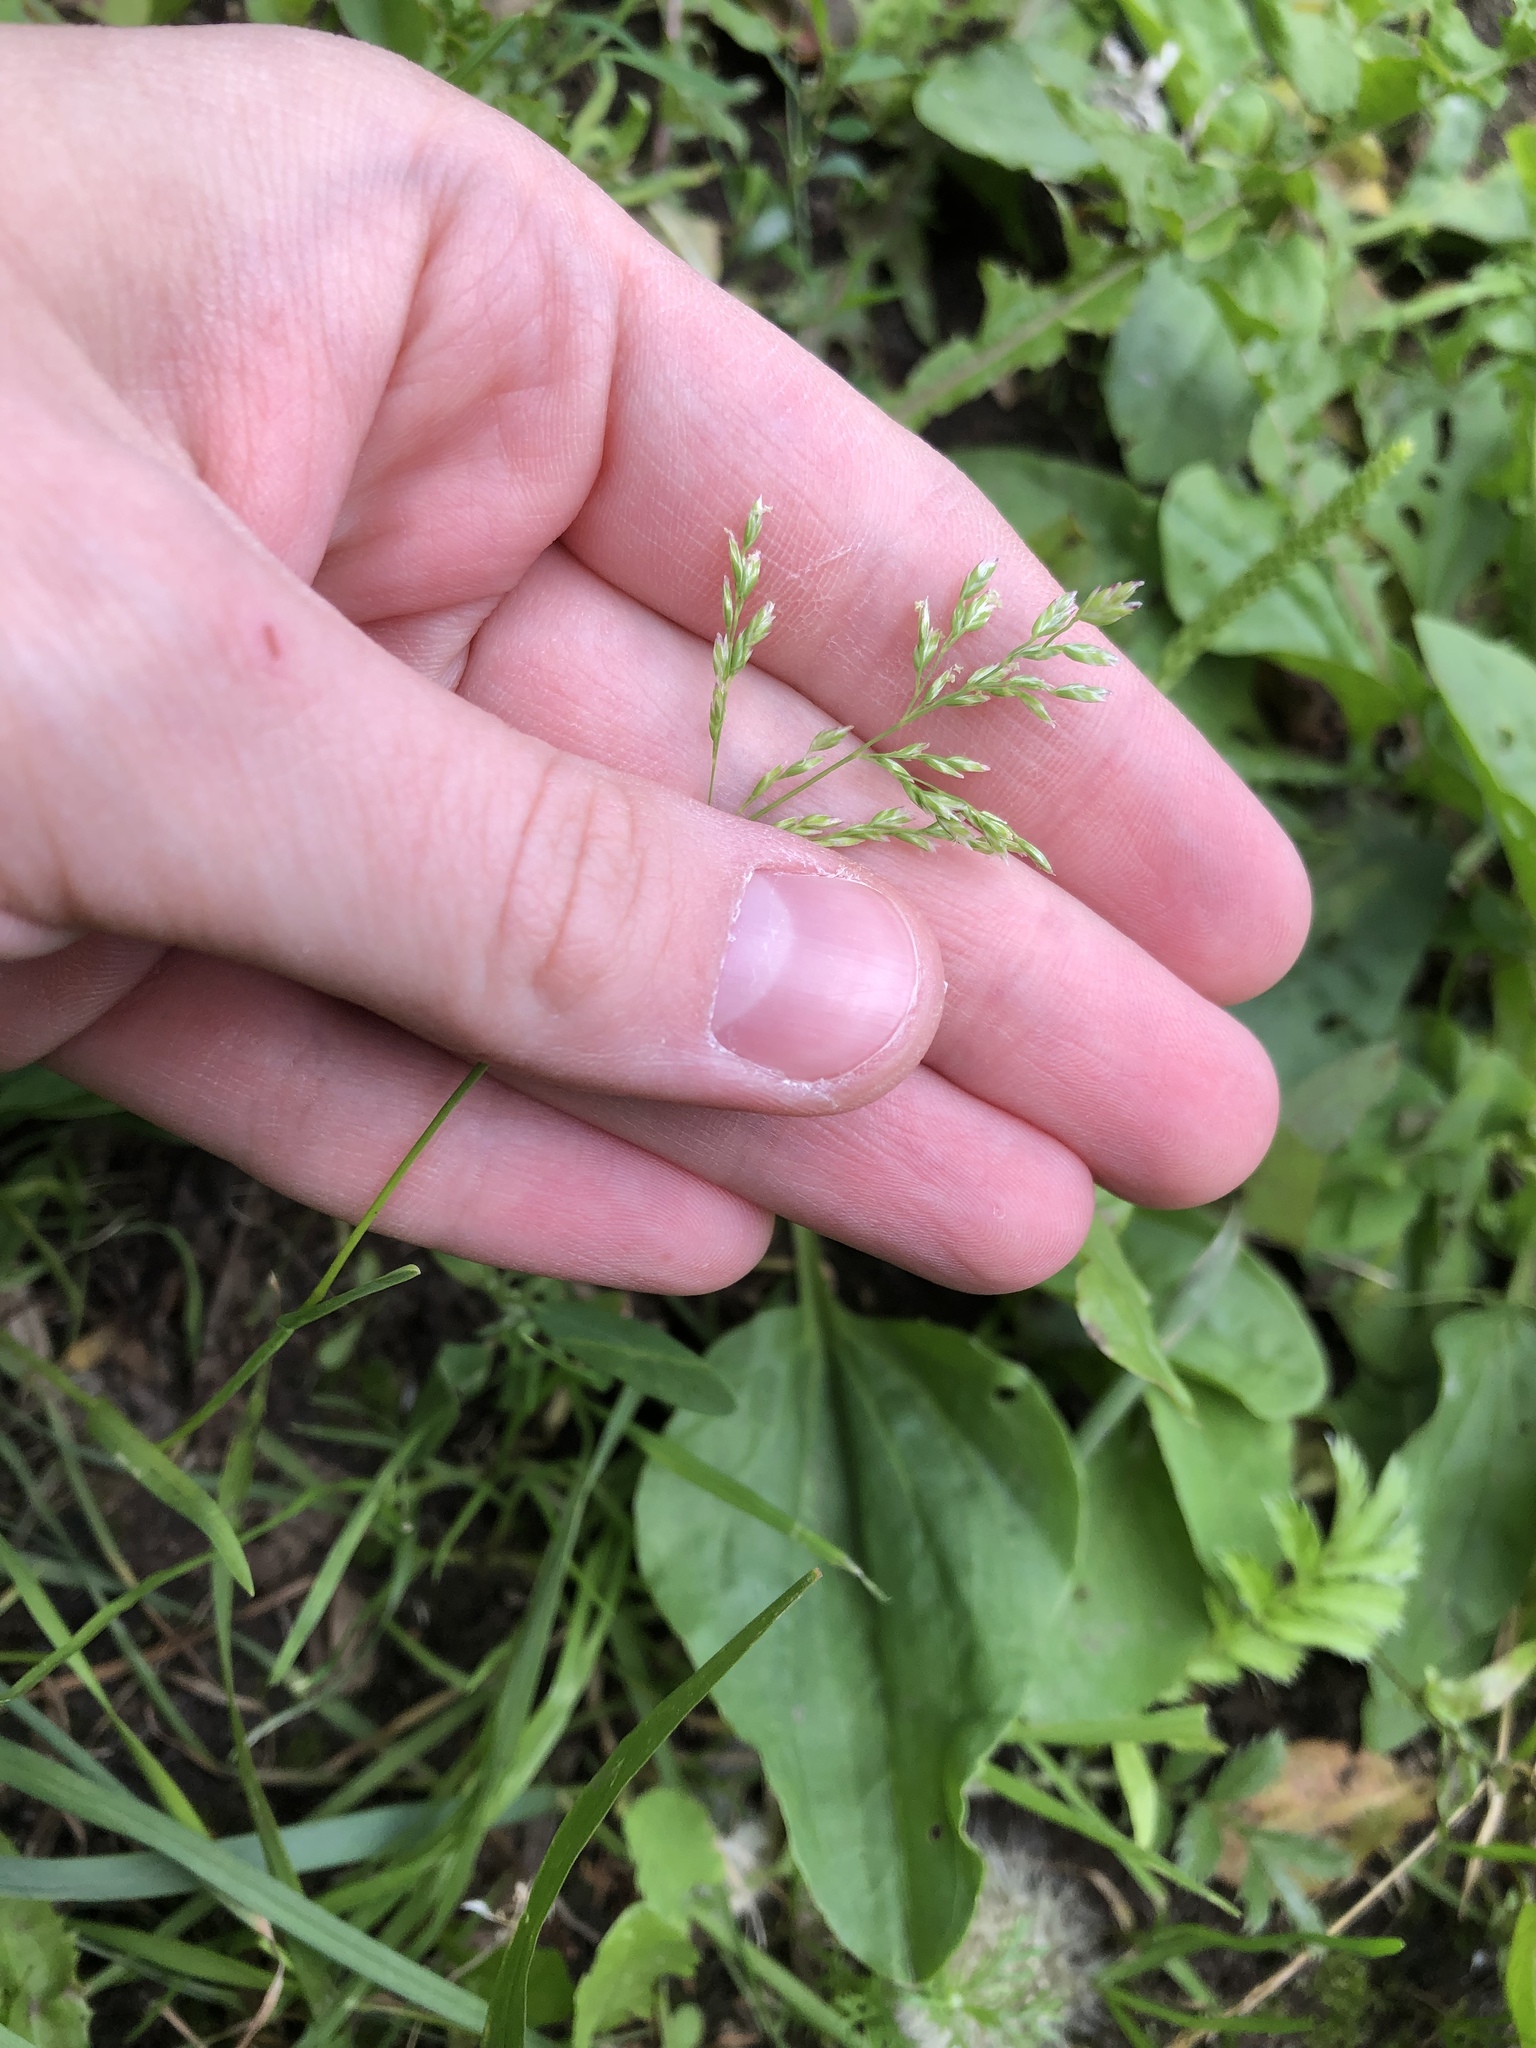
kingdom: Plantae
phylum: Tracheophyta
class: Liliopsida
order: Poales
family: Poaceae
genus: Poa
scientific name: Poa annua
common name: Annual bluegrass
